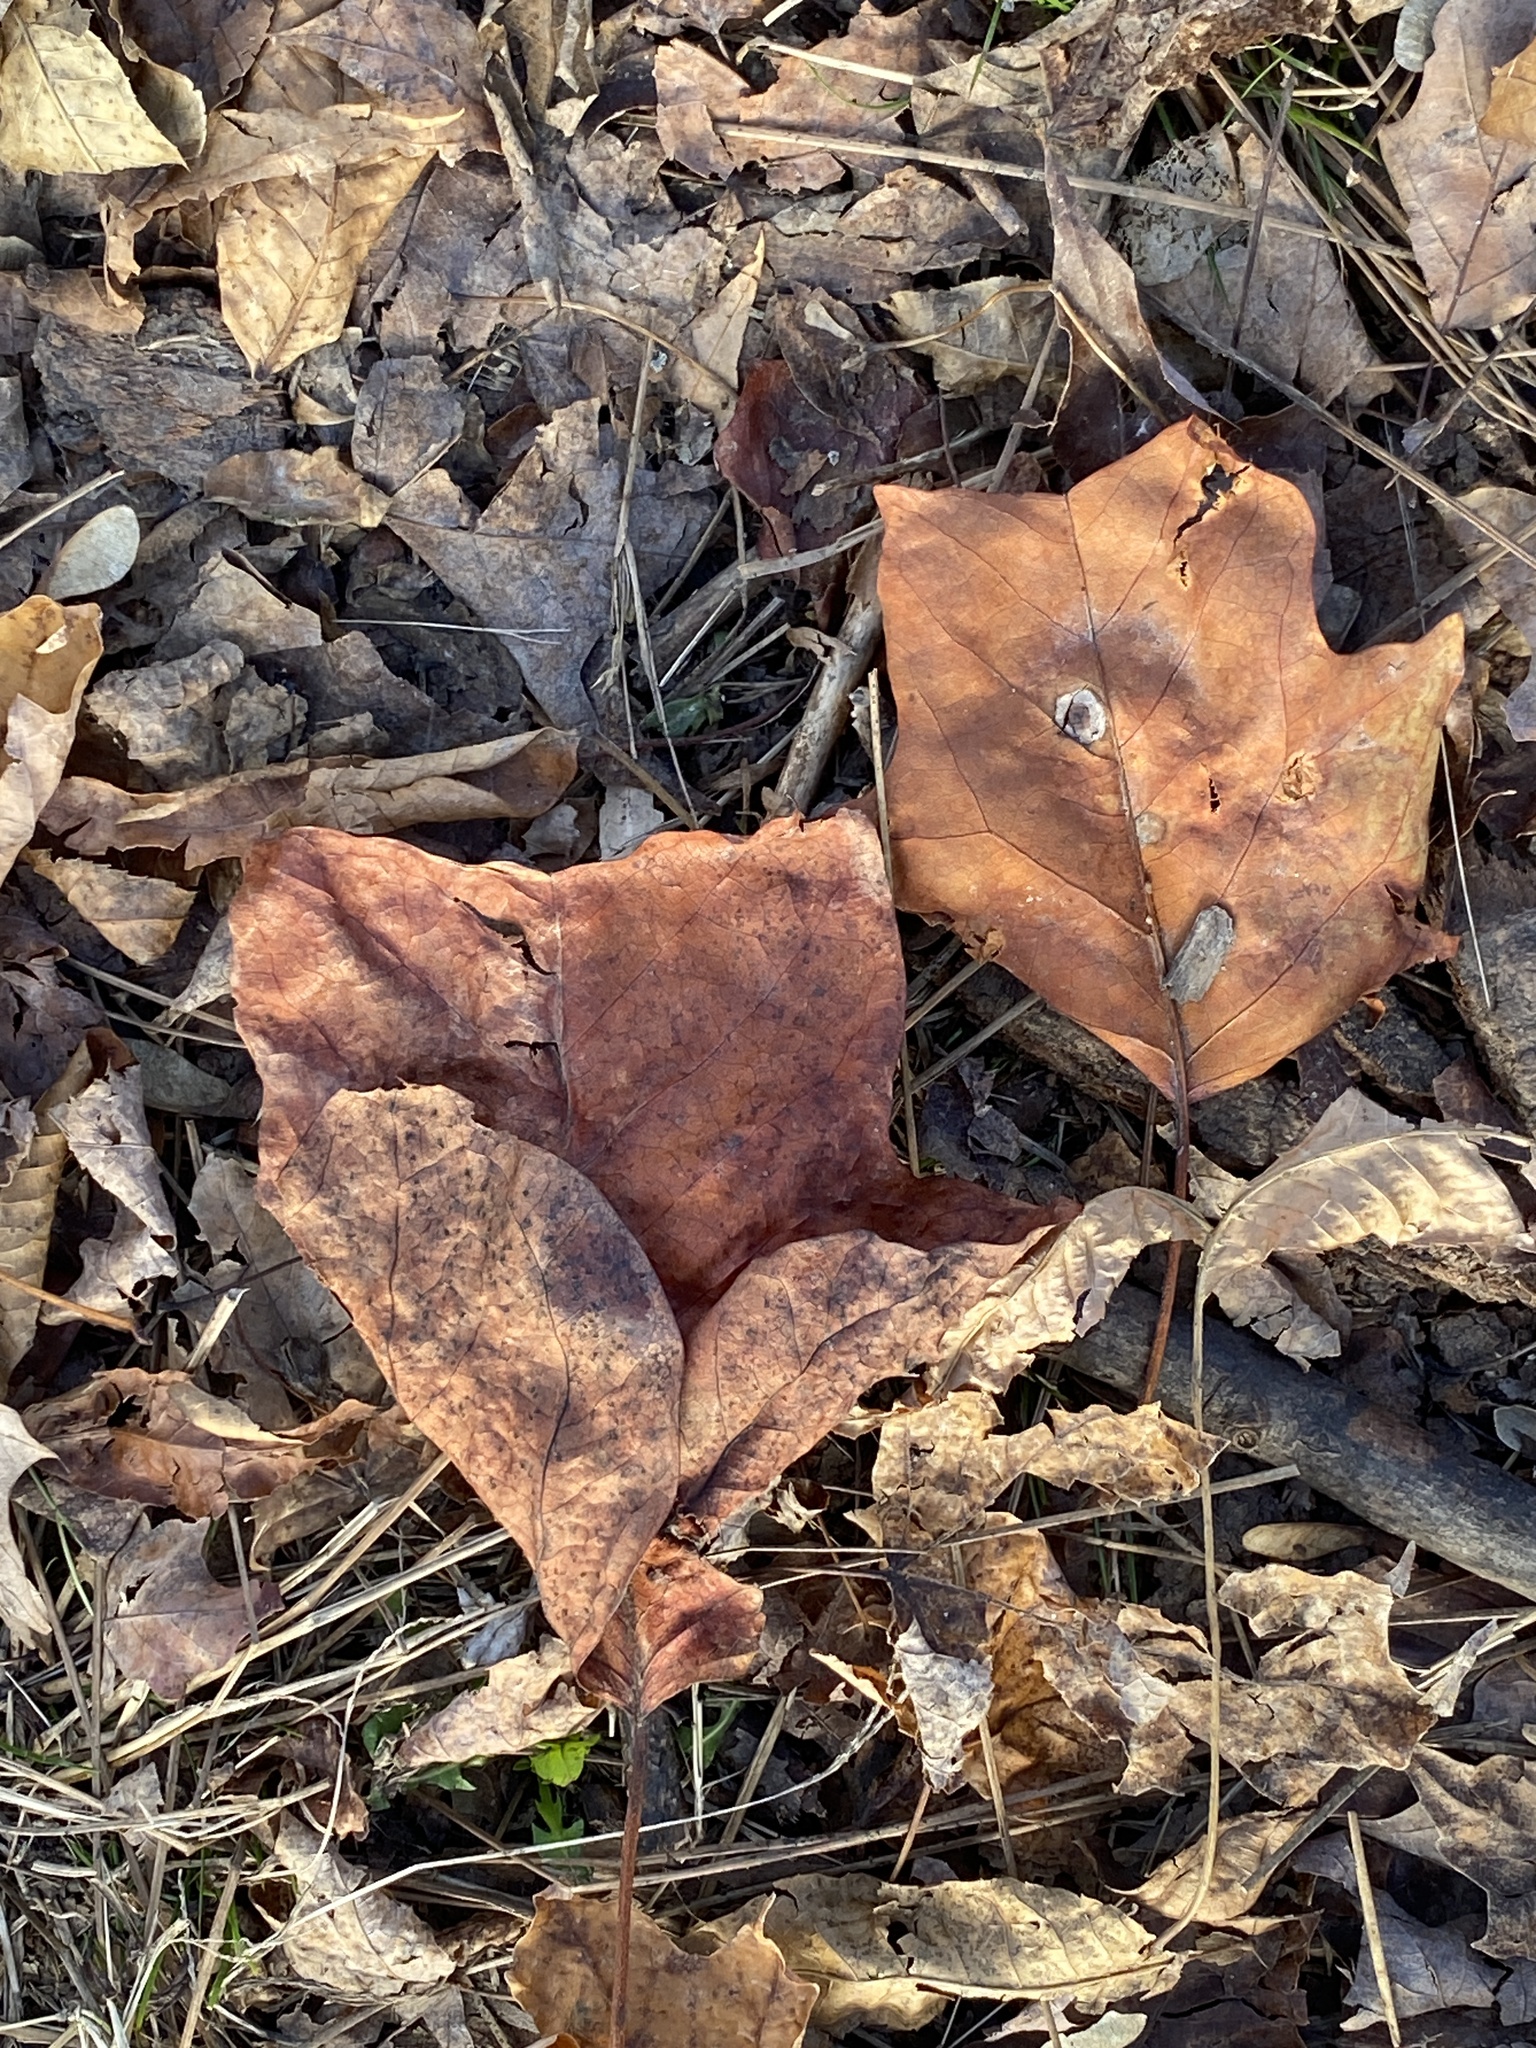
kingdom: Plantae
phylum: Tracheophyta
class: Magnoliopsida
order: Magnoliales
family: Magnoliaceae
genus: Liriodendron
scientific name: Liriodendron tulipifera
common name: Tulip tree
